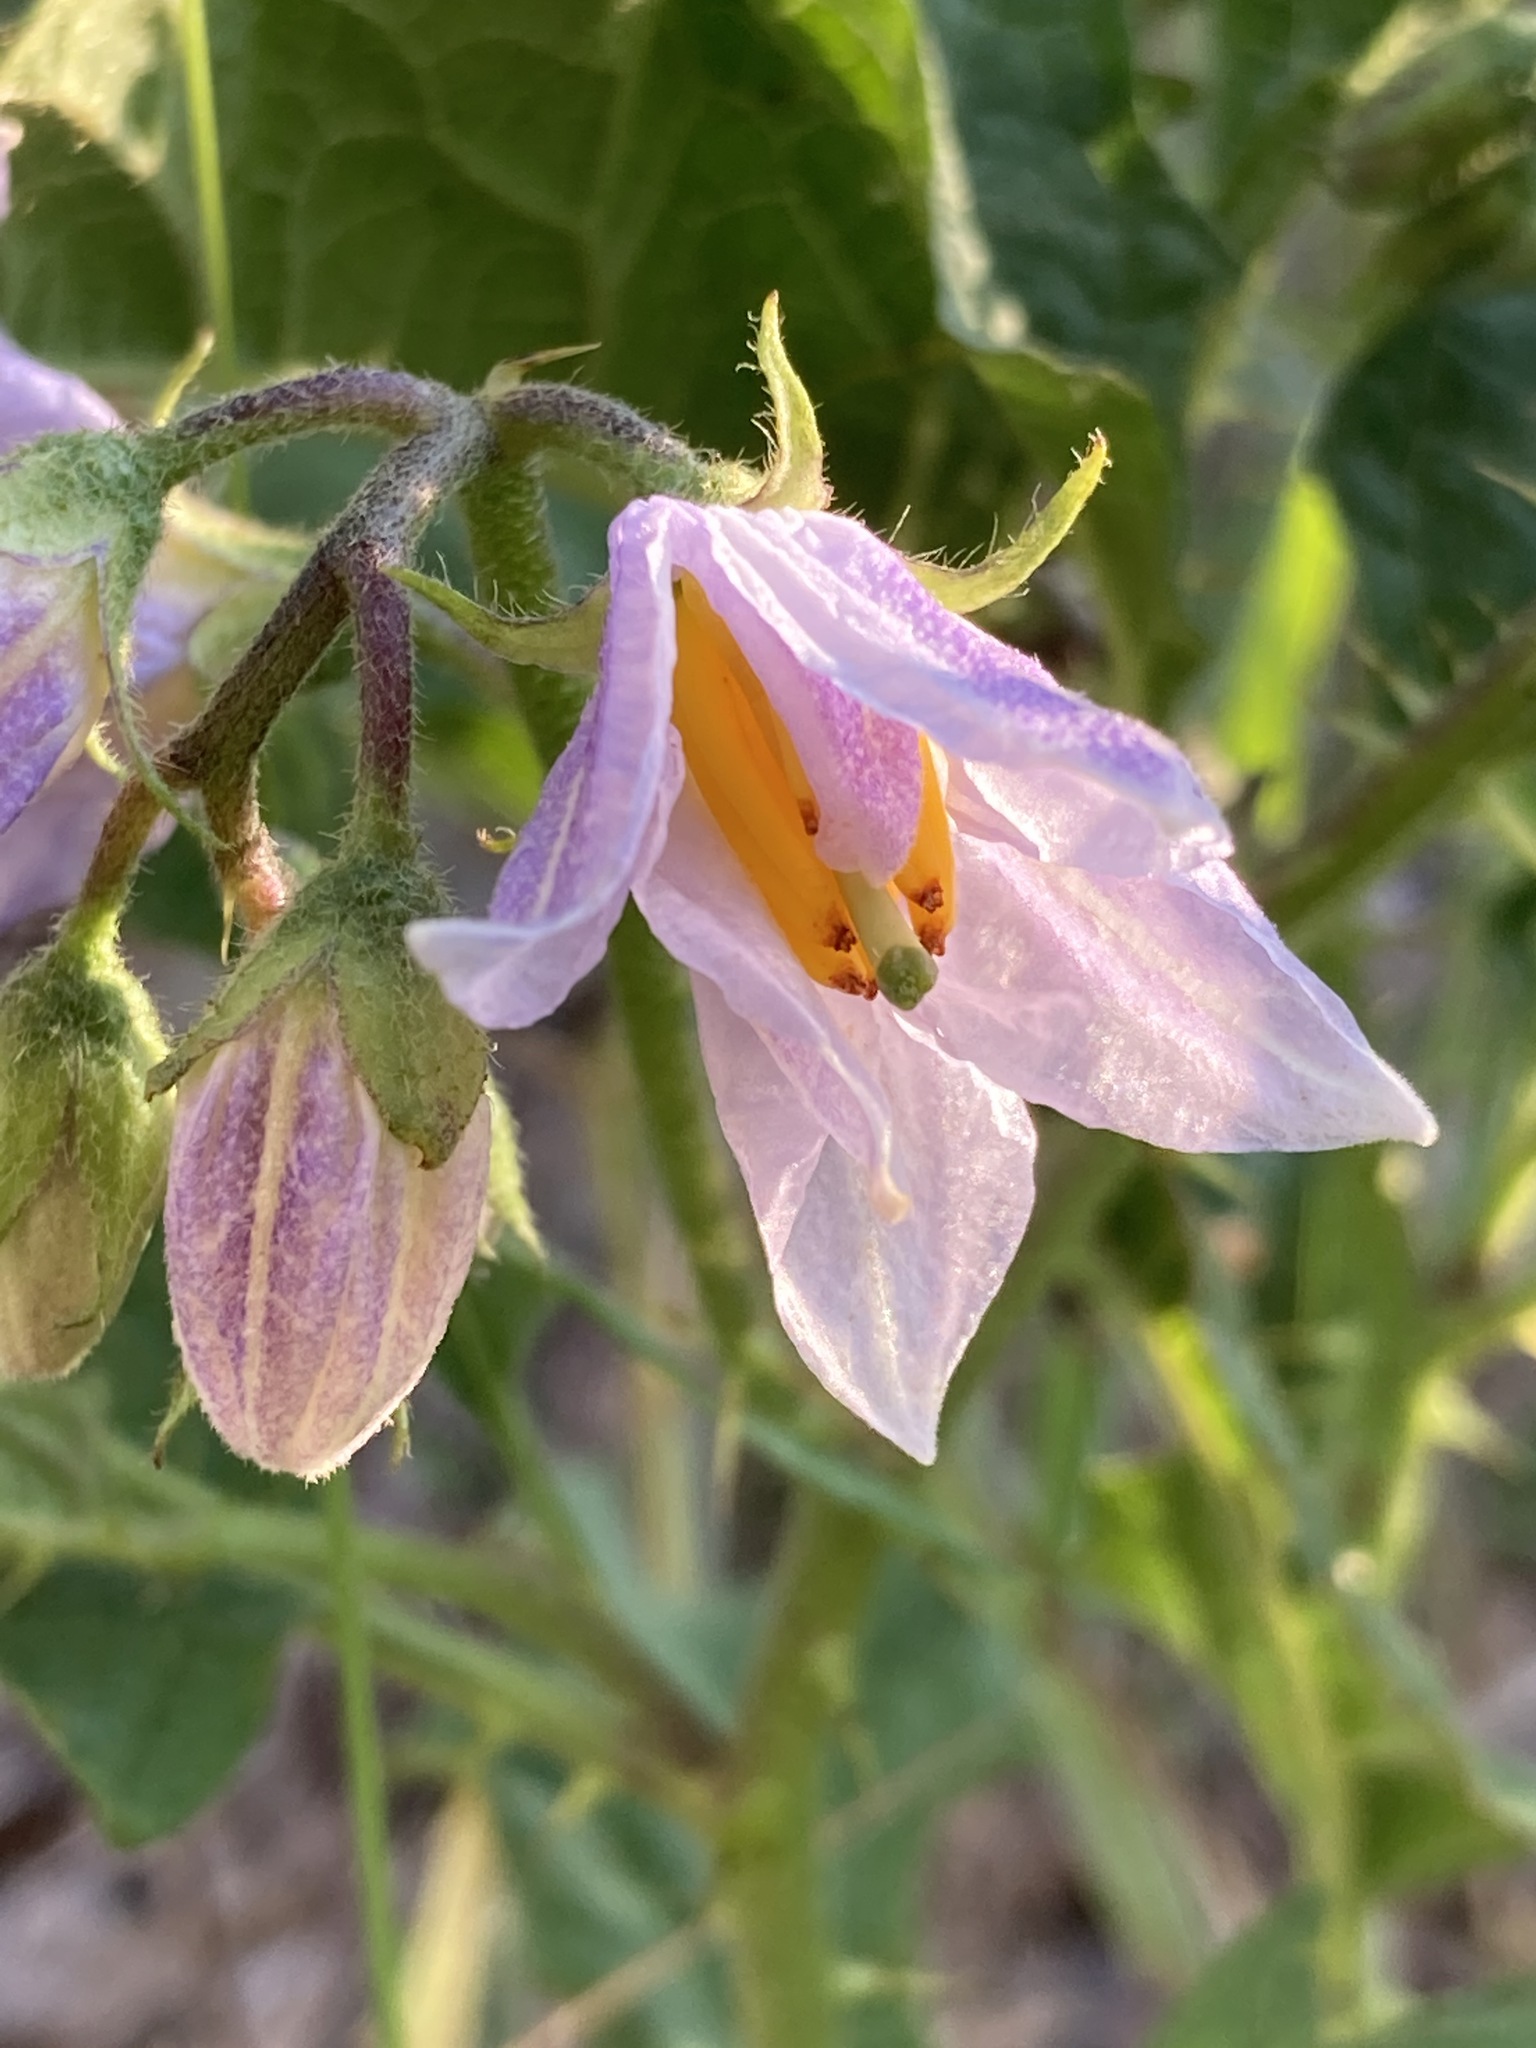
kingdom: Plantae
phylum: Tracheophyta
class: Magnoliopsida
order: Solanales
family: Solanaceae
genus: Solanum
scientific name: Solanum carolinense
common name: Horse-nettle
